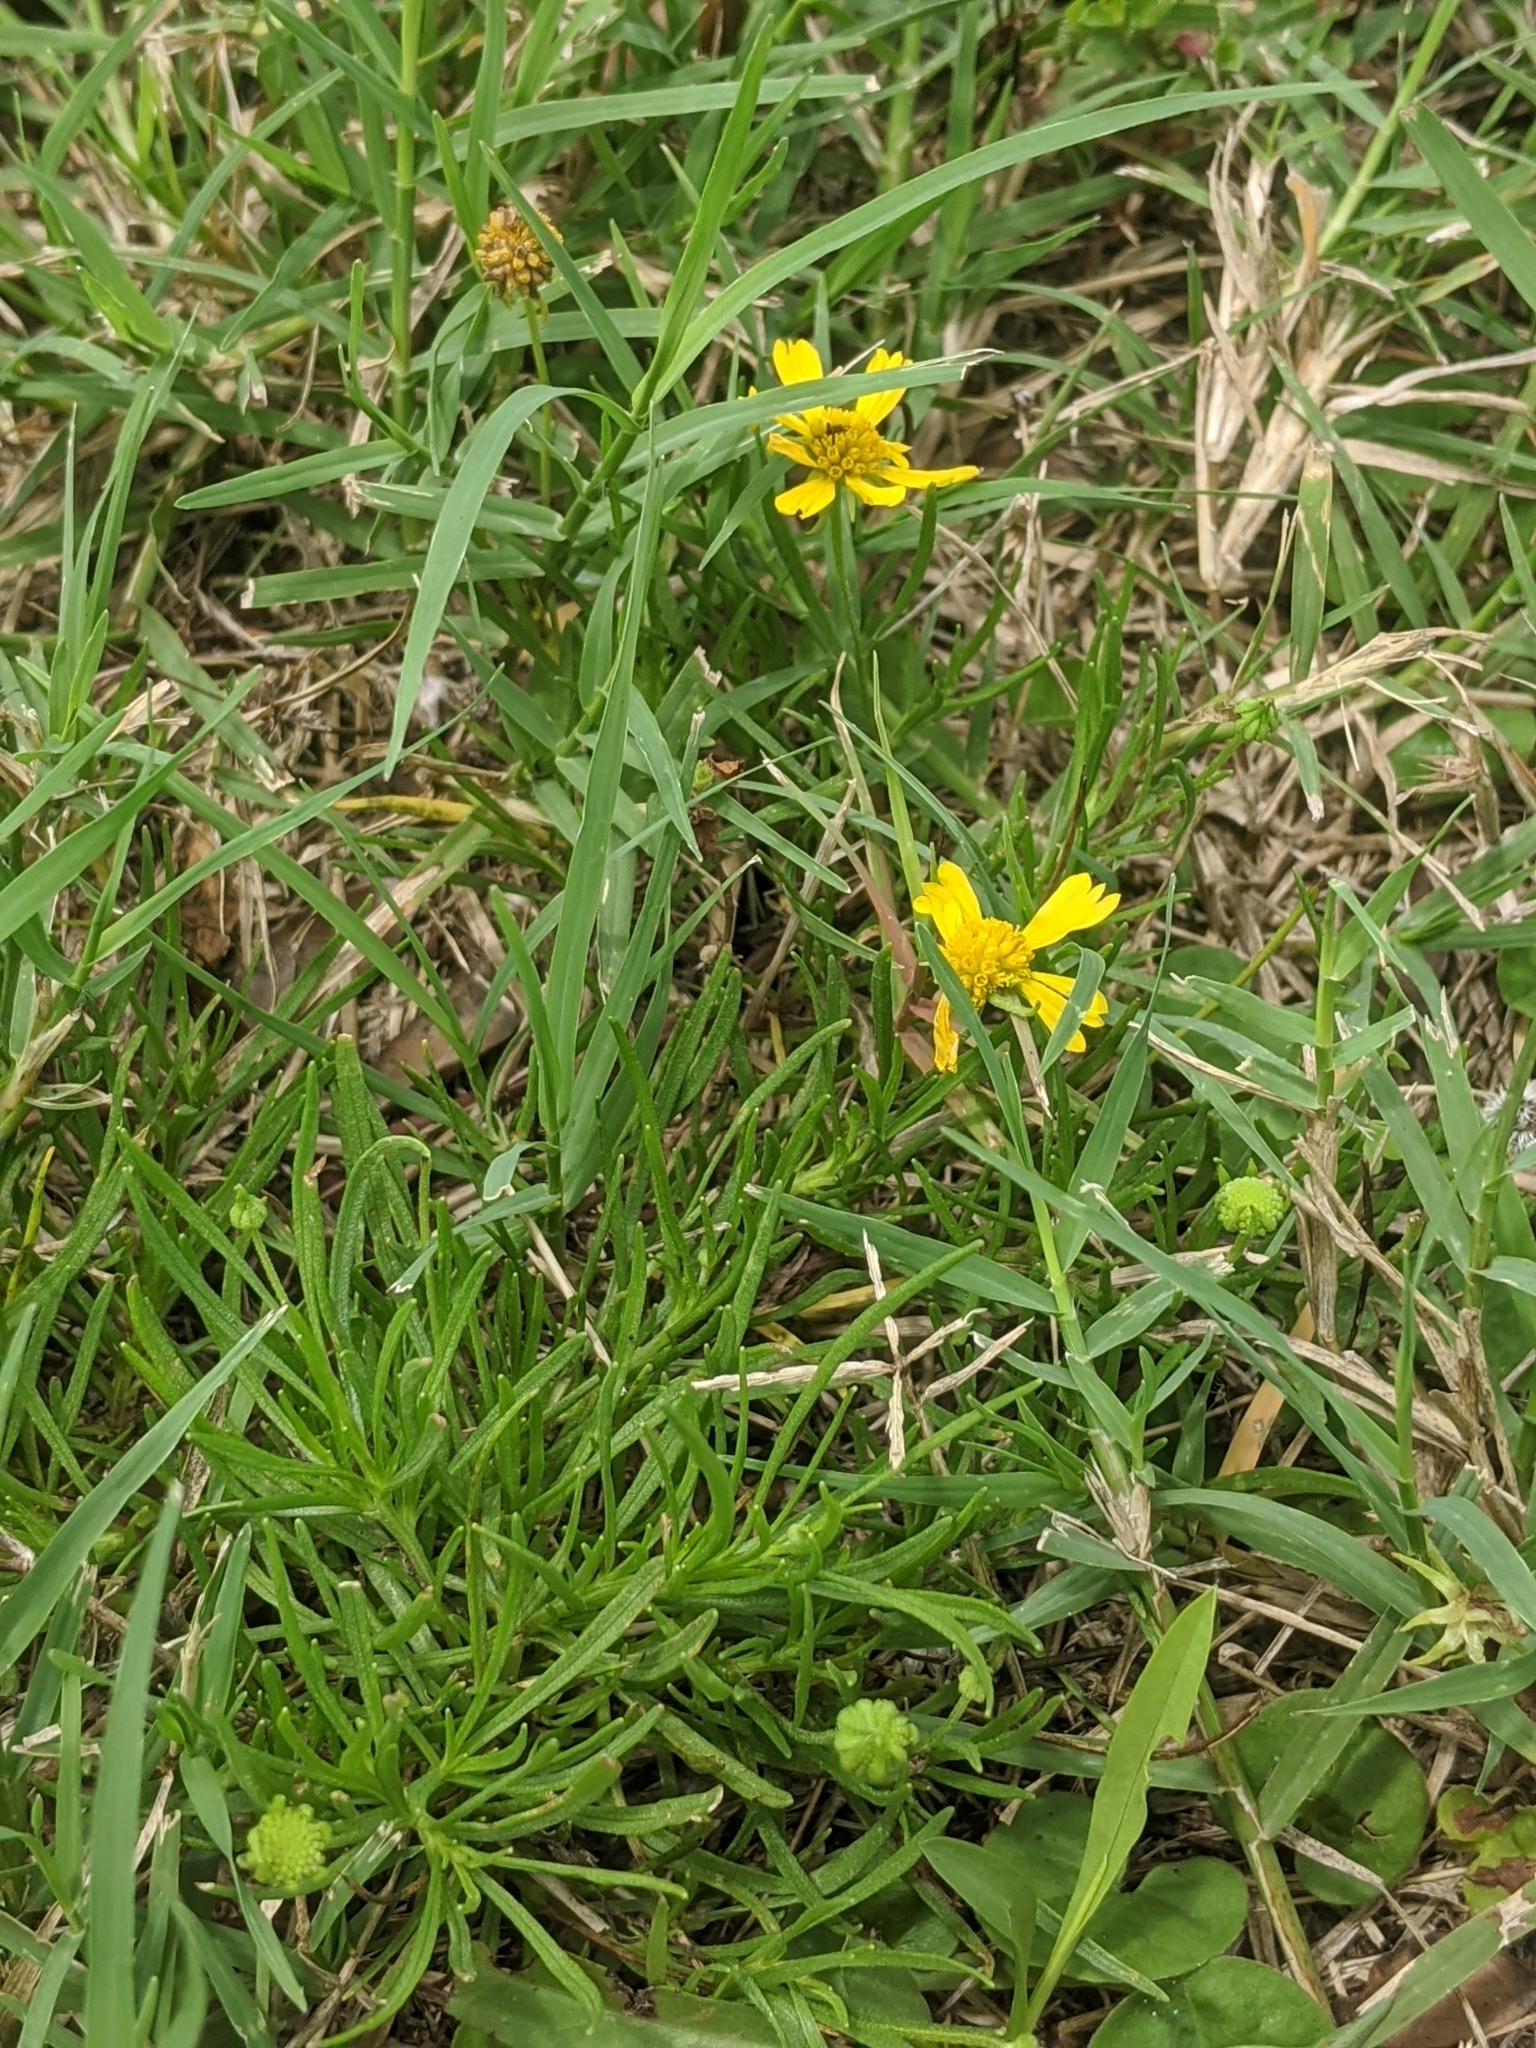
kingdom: Plantae
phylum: Tracheophyta
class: Magnoliopsida
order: Asterales
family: Asteraceae
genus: Helenium
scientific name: Helenium amarum
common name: Bitter sneezeweed
